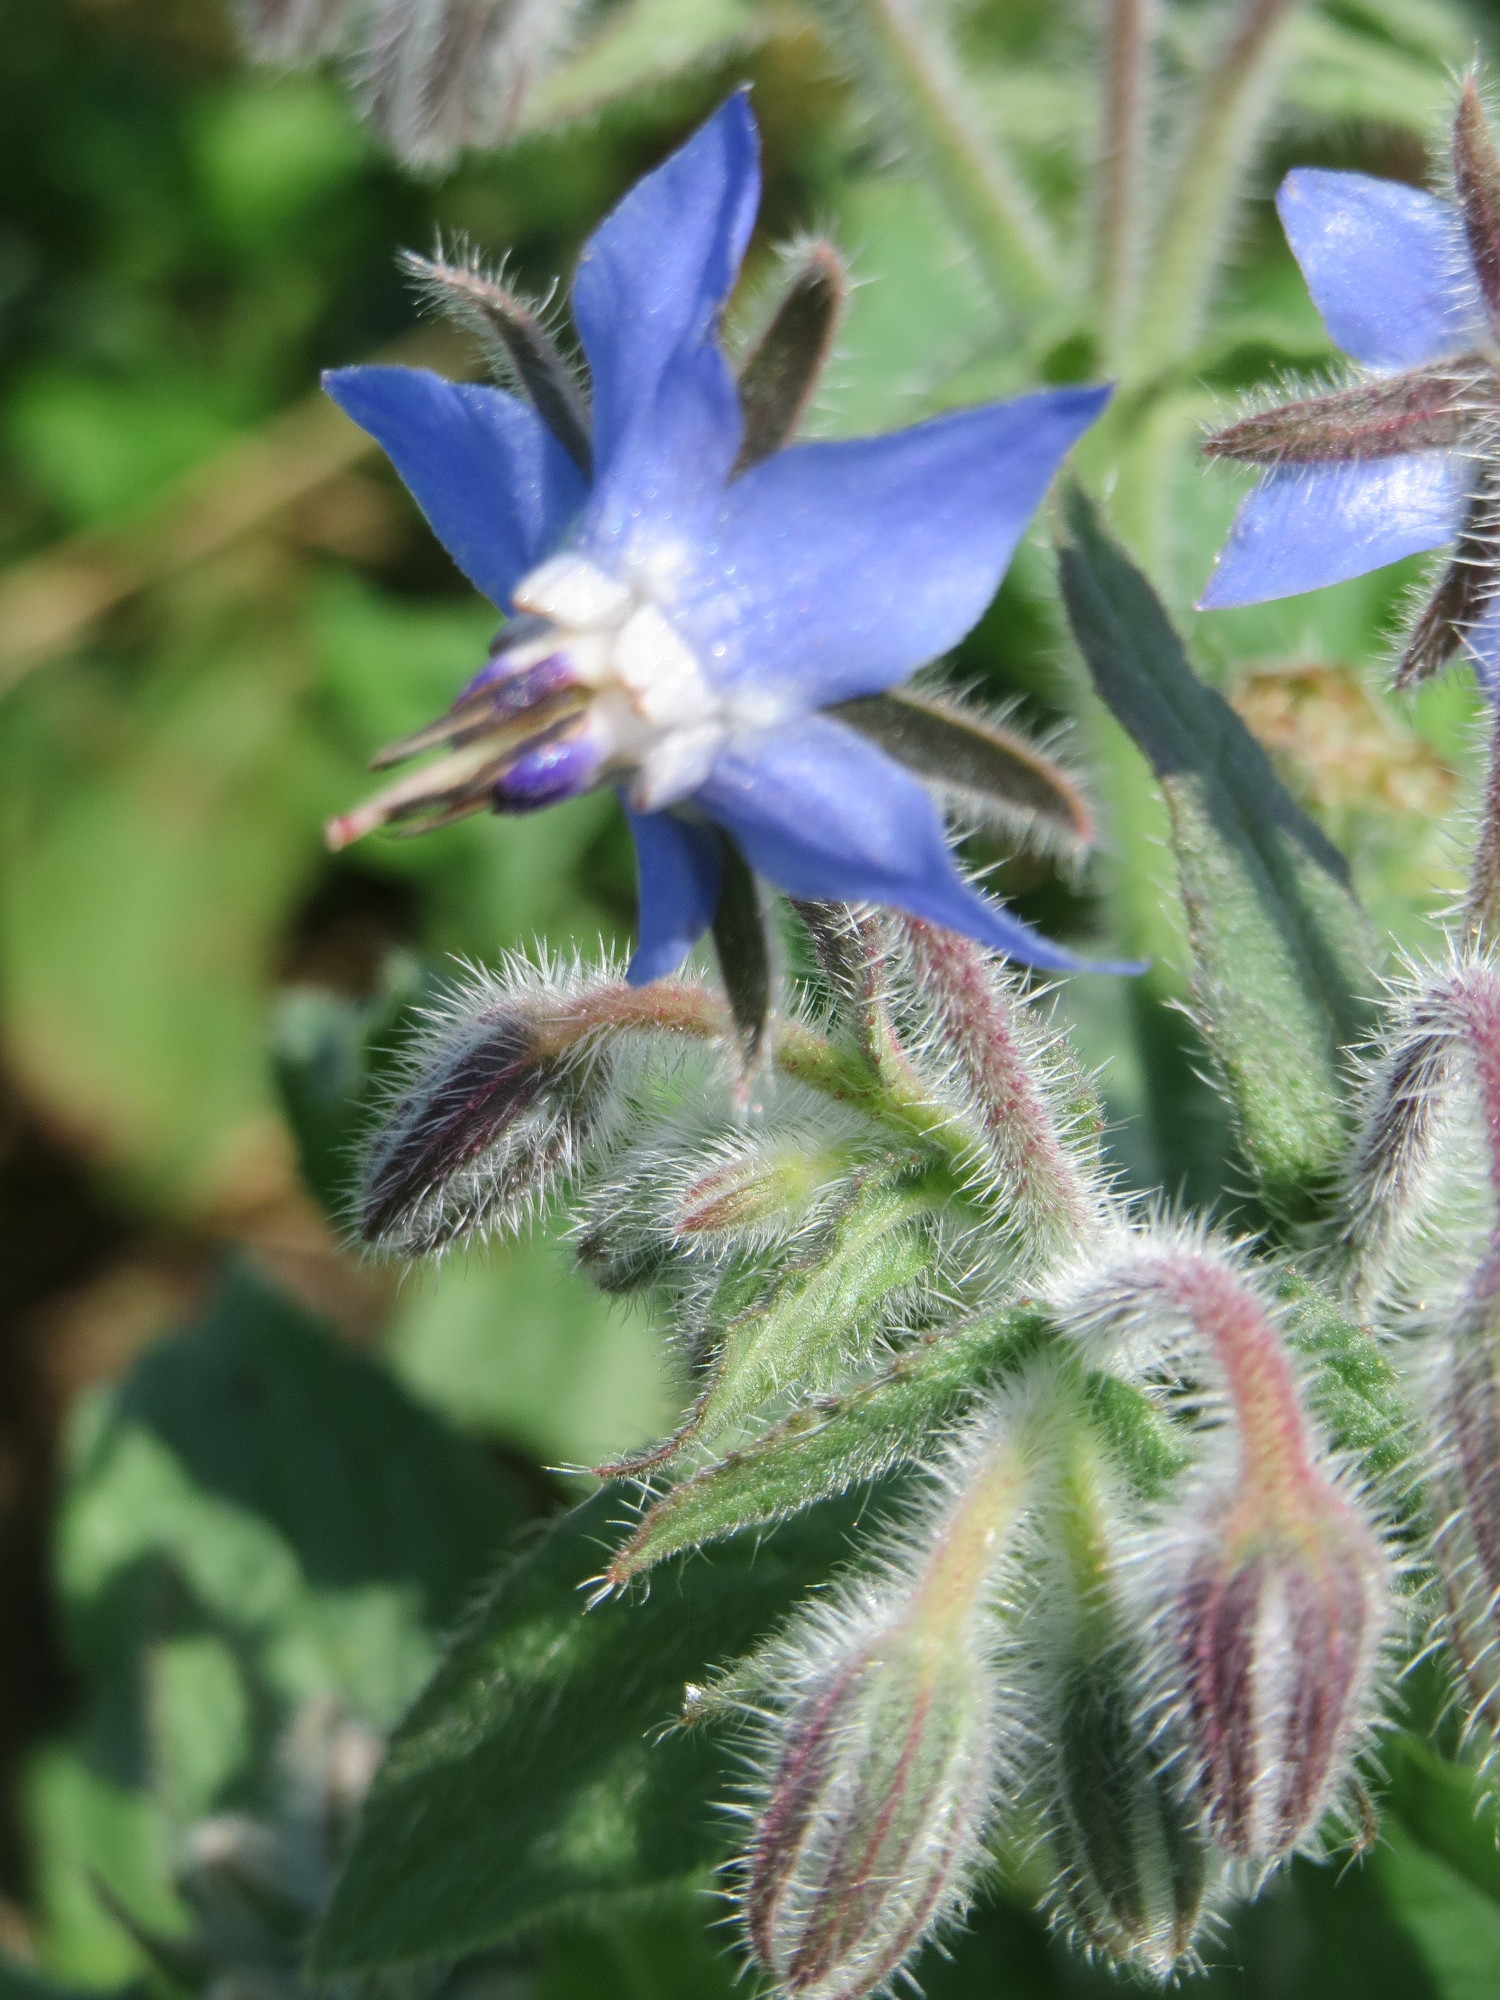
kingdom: Plantae
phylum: Tracheophyta
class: Magnoliopsida
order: Boraginales
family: Boraginaceae
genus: Borago
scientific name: Borago officinalis
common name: Borage
